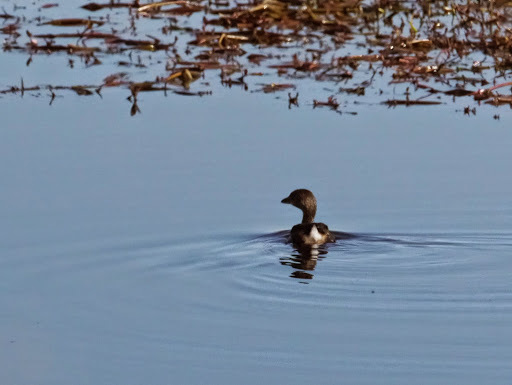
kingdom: Animalia
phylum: Chordata
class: Aves
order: Podicipediformes
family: Podicipedidae
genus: Podilymbus
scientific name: Podilymbus podiceps
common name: Pied-billed grebe
